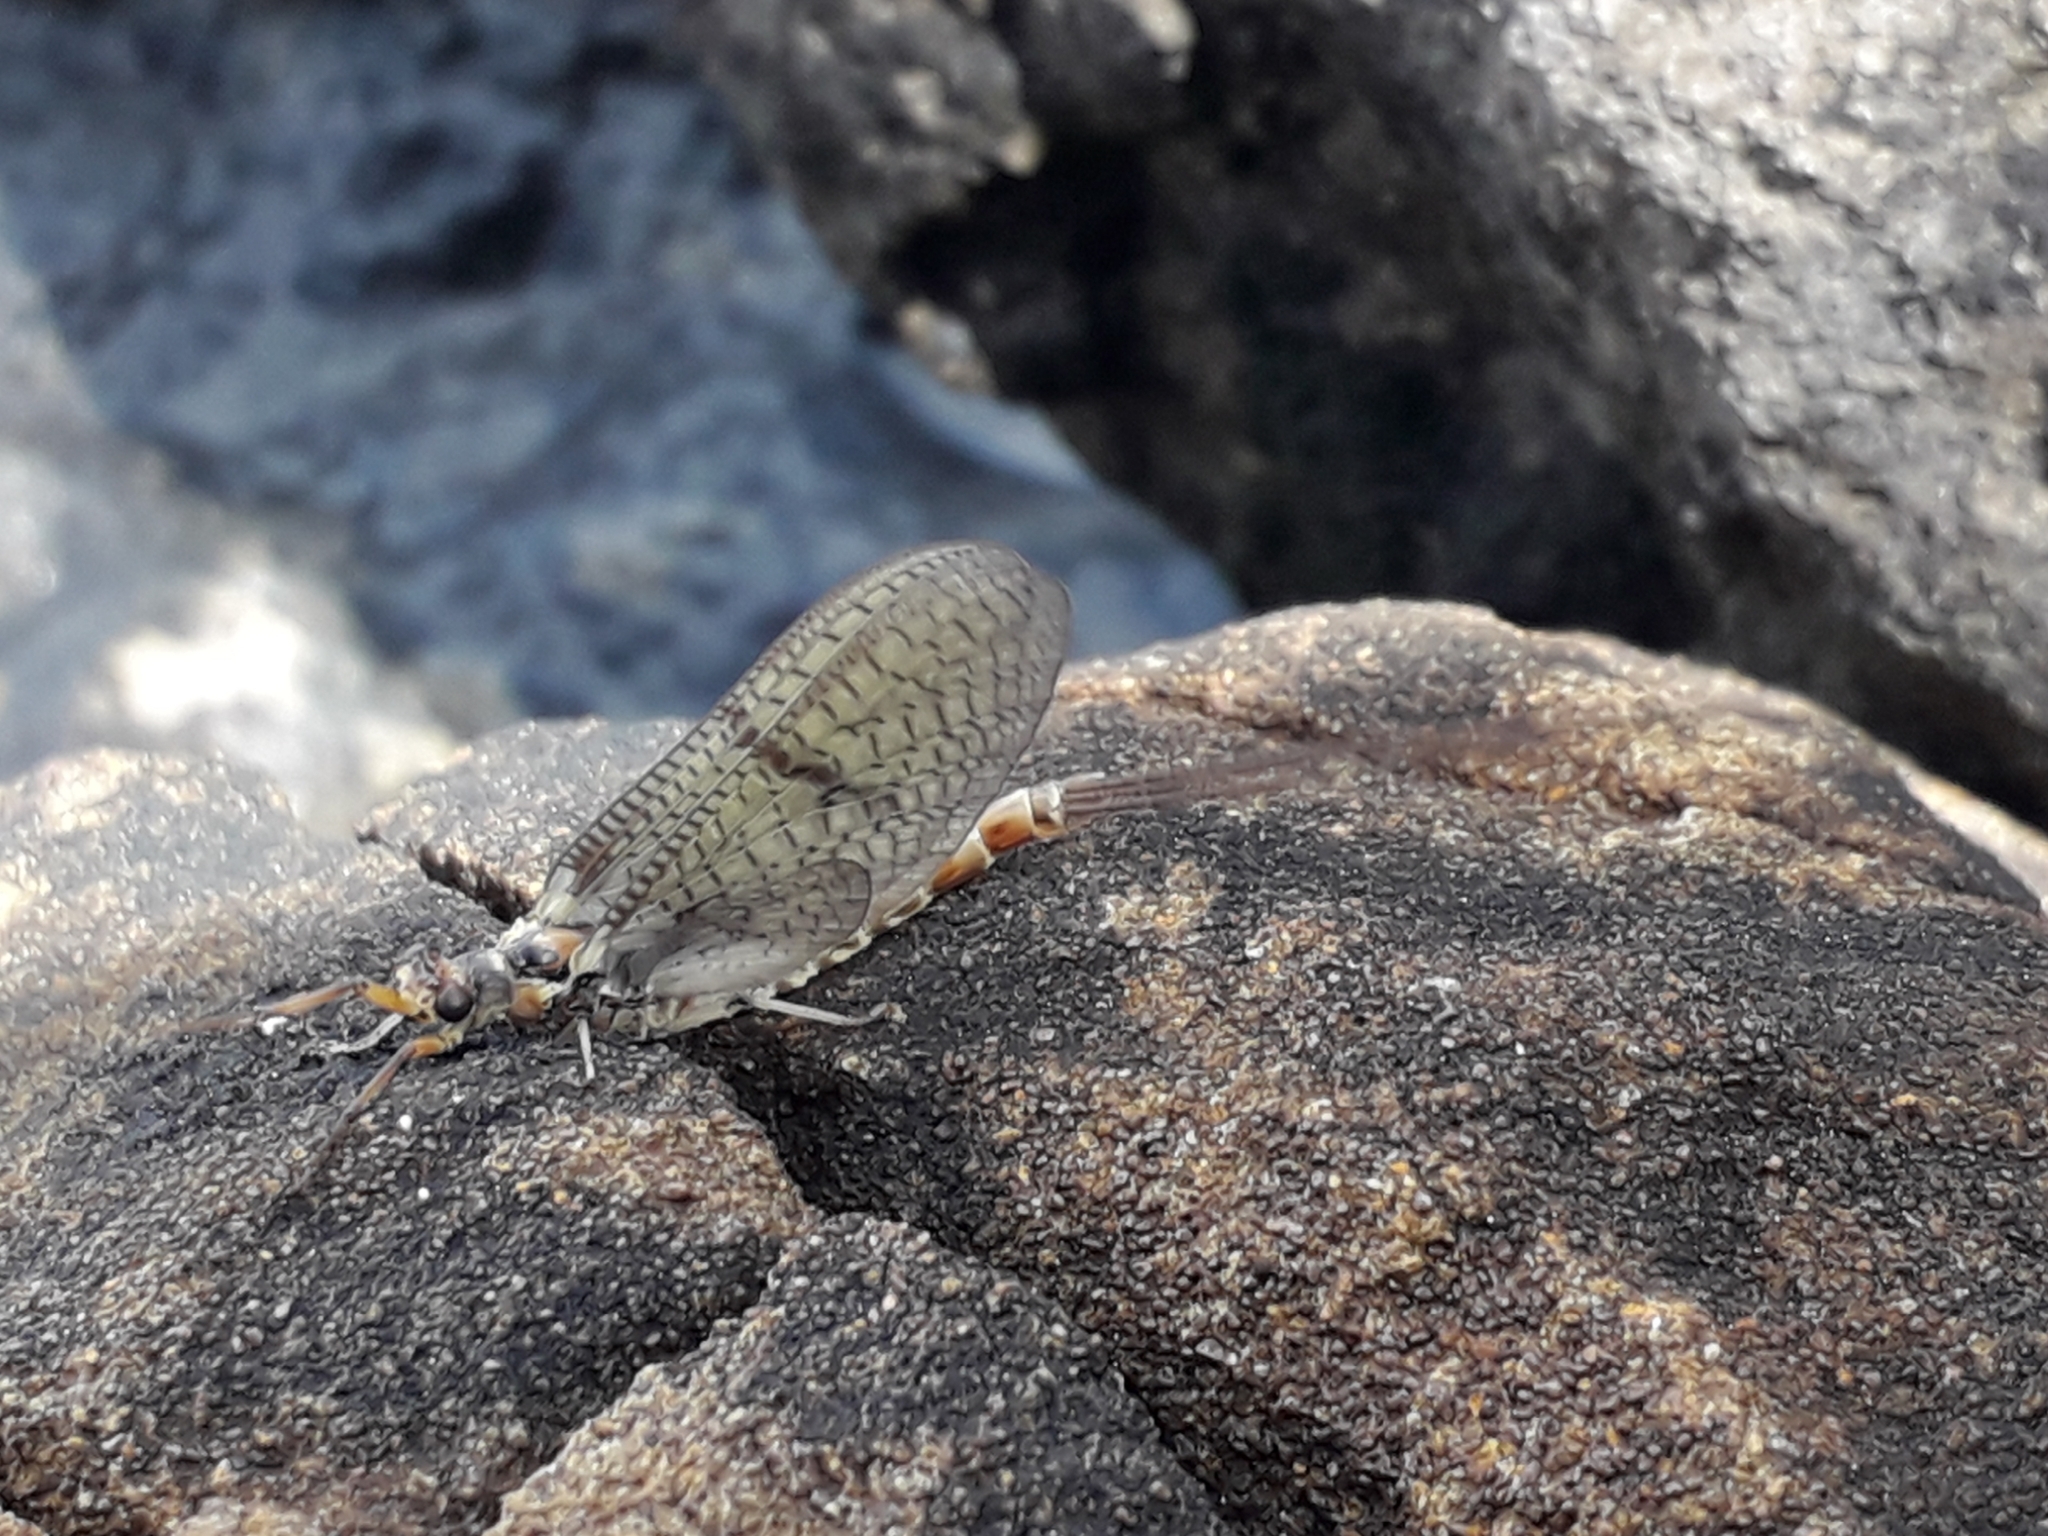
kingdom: Animalia
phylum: Arthropoda
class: Insecta
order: Ephemeroptera
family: Ephemeridae
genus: Ephemera
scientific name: Ephemera danica
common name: Green dun
